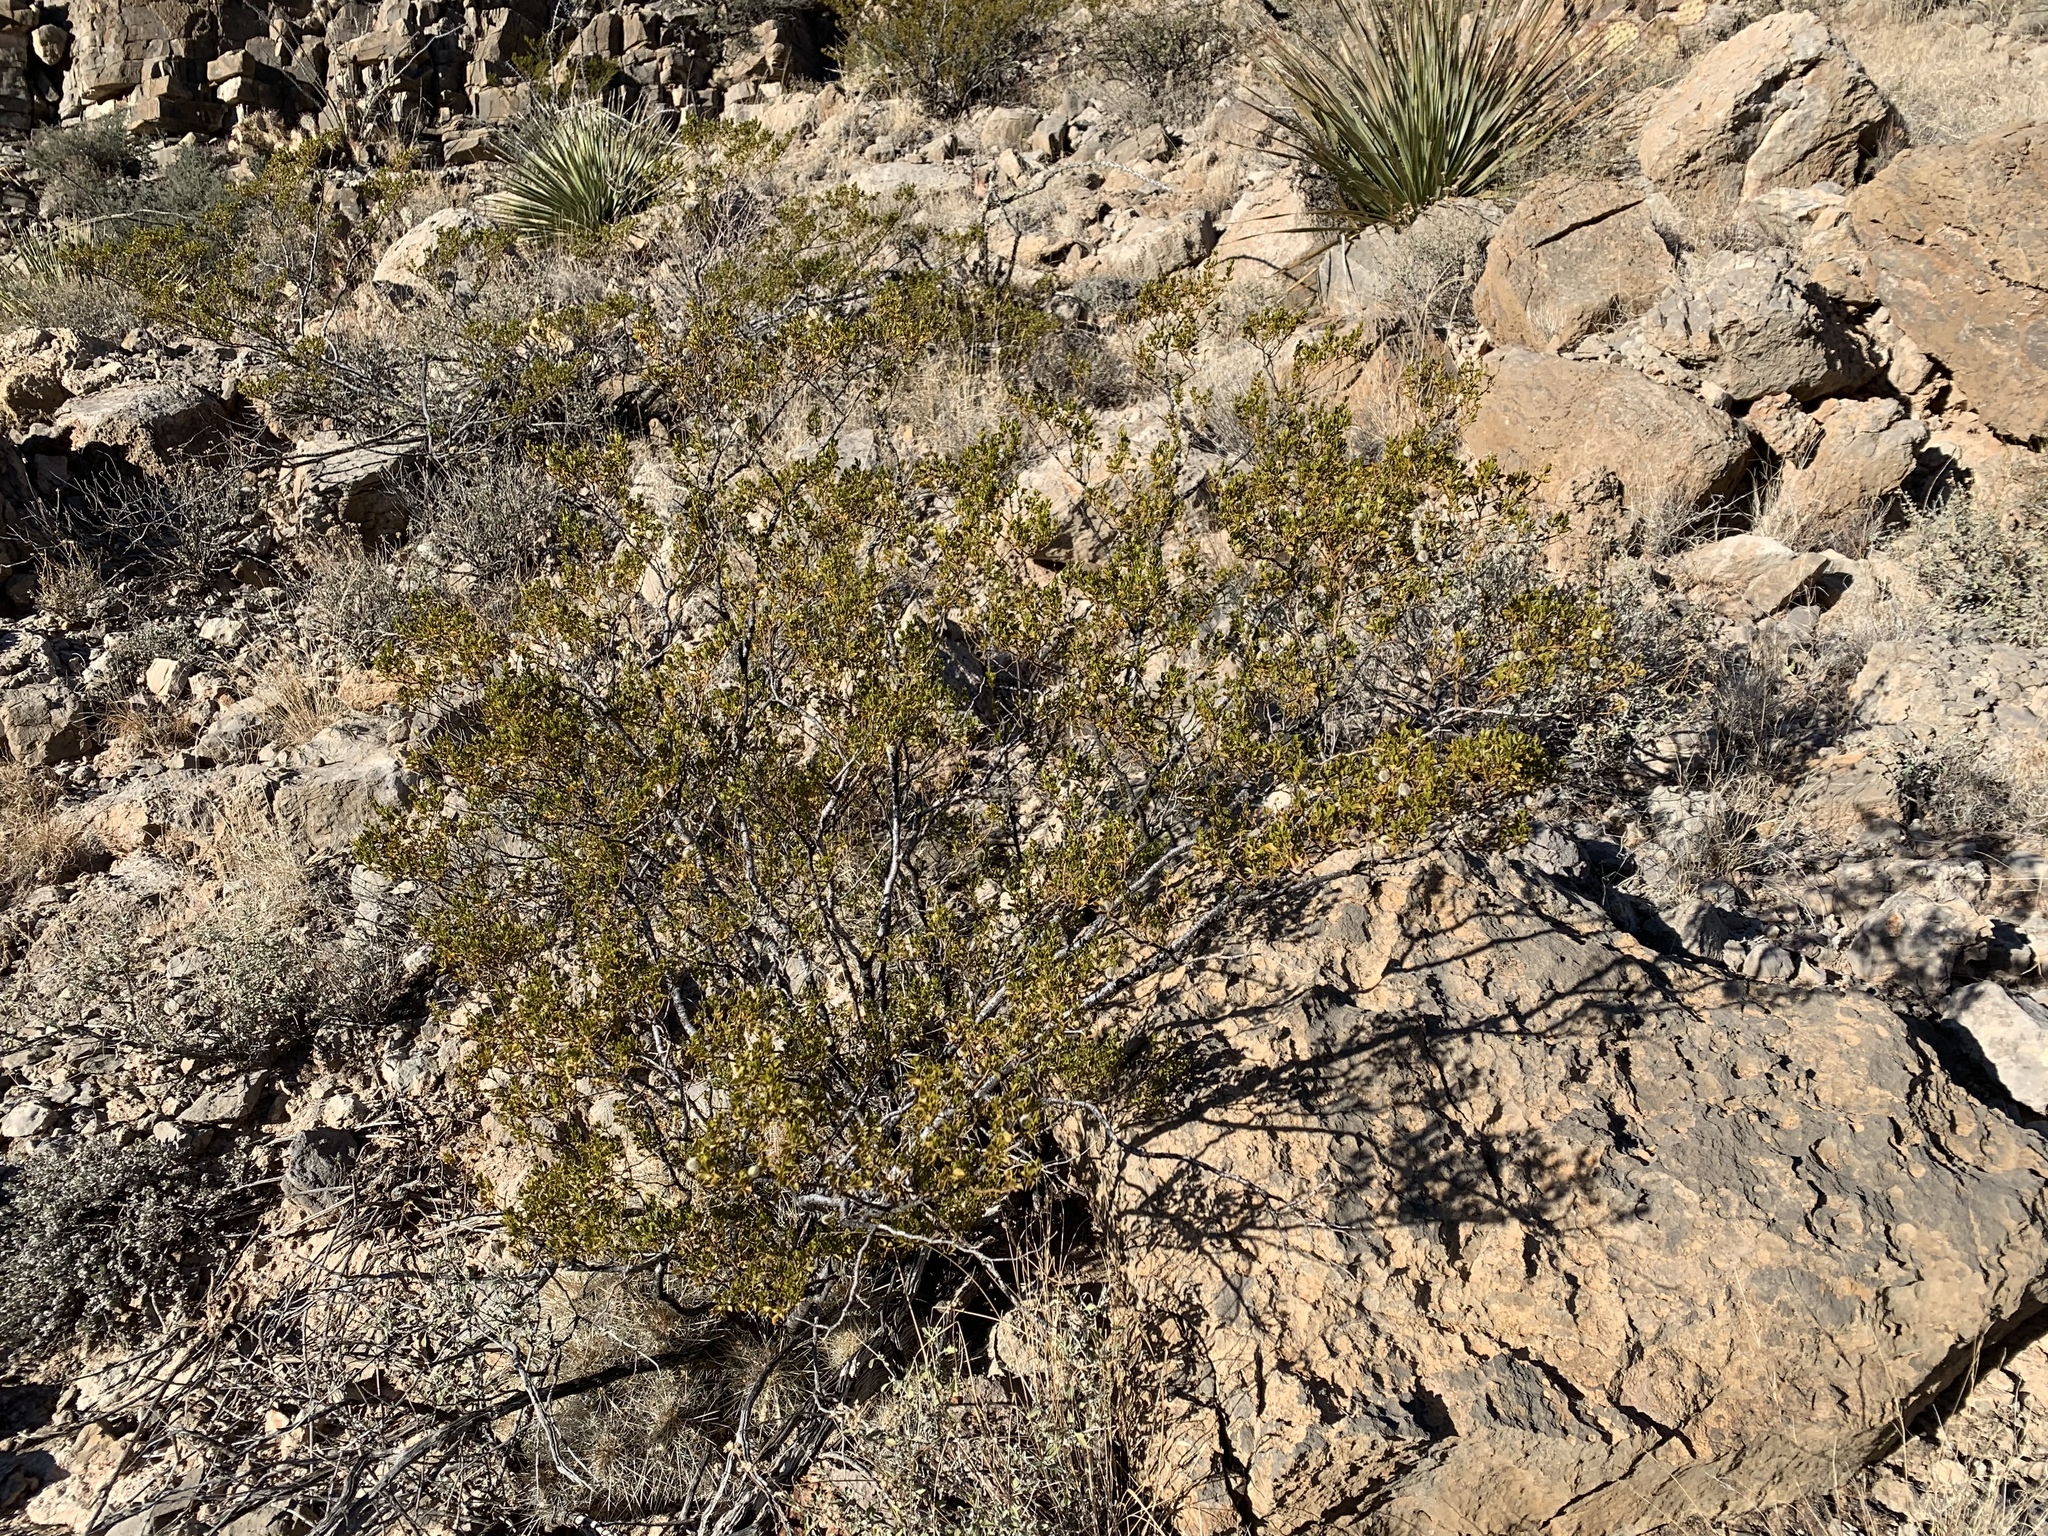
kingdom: Plantae
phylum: Tracheophyta
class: Magnoliopsida
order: Zygophyllales
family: Zygophyllaceae
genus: Larrea
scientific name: Larrea tridentata
